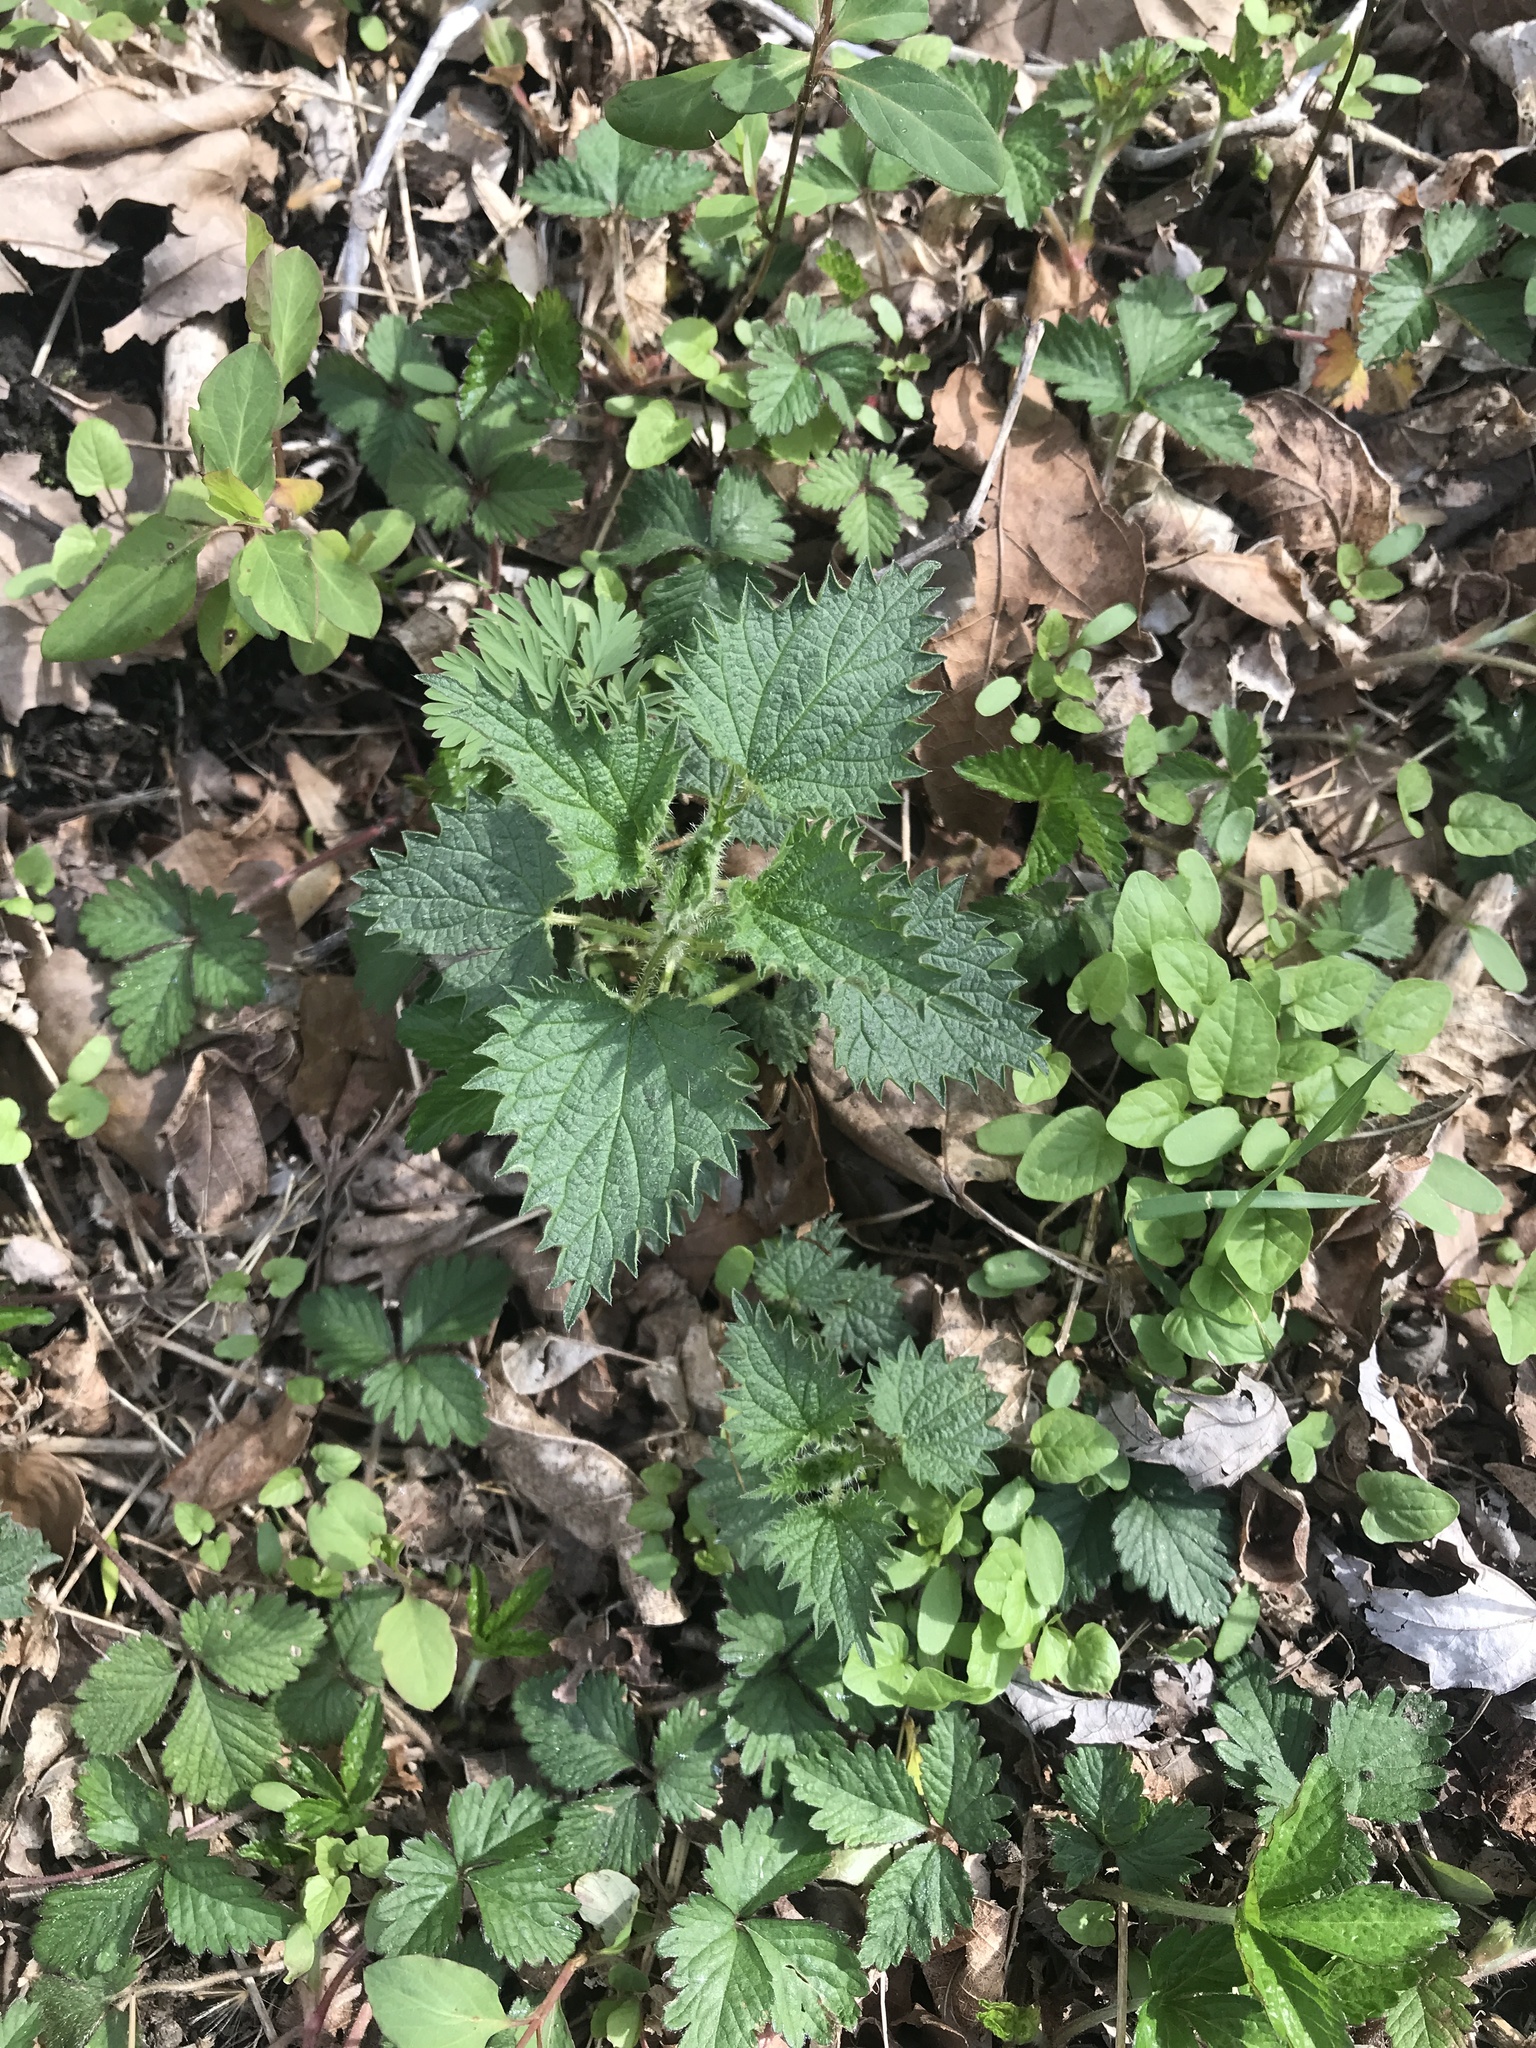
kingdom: Plantae
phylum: Tracheophyta
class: Magnoliopsida
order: Rosales
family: Urticaceae
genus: Urtica
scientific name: Urtica dioica
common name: Common nettle
